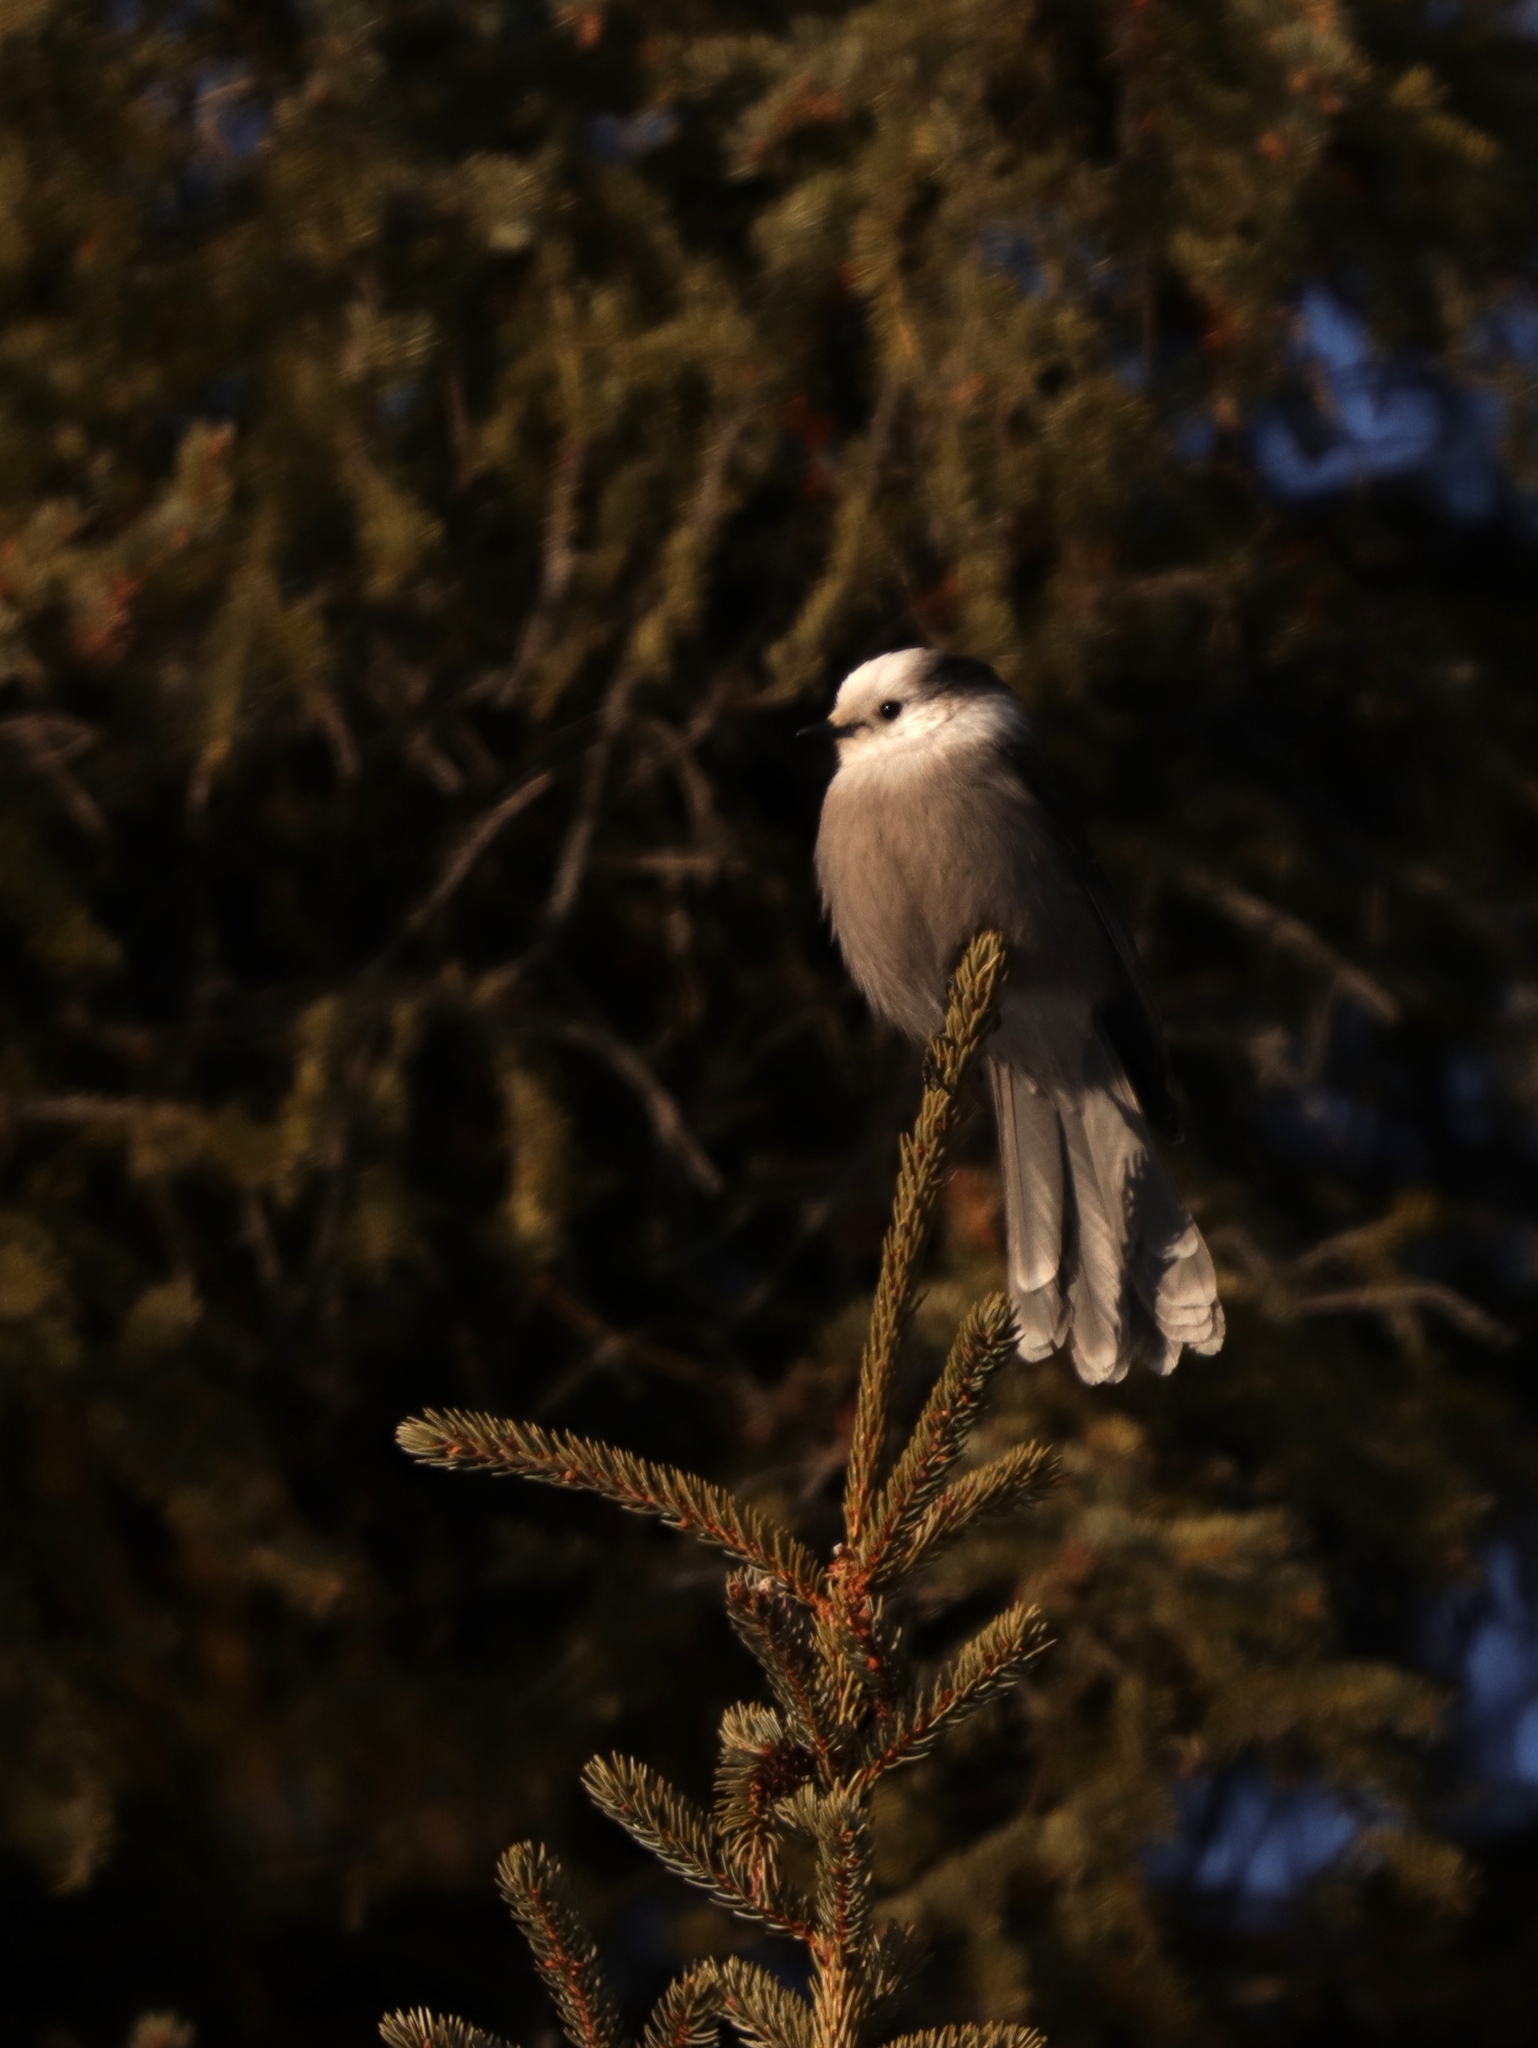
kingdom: Animalia
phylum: Chordata
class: Aves
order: Passeriformes
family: Corvidae
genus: Perisoreus
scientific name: Perisoreus canadensis
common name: Gray jay
